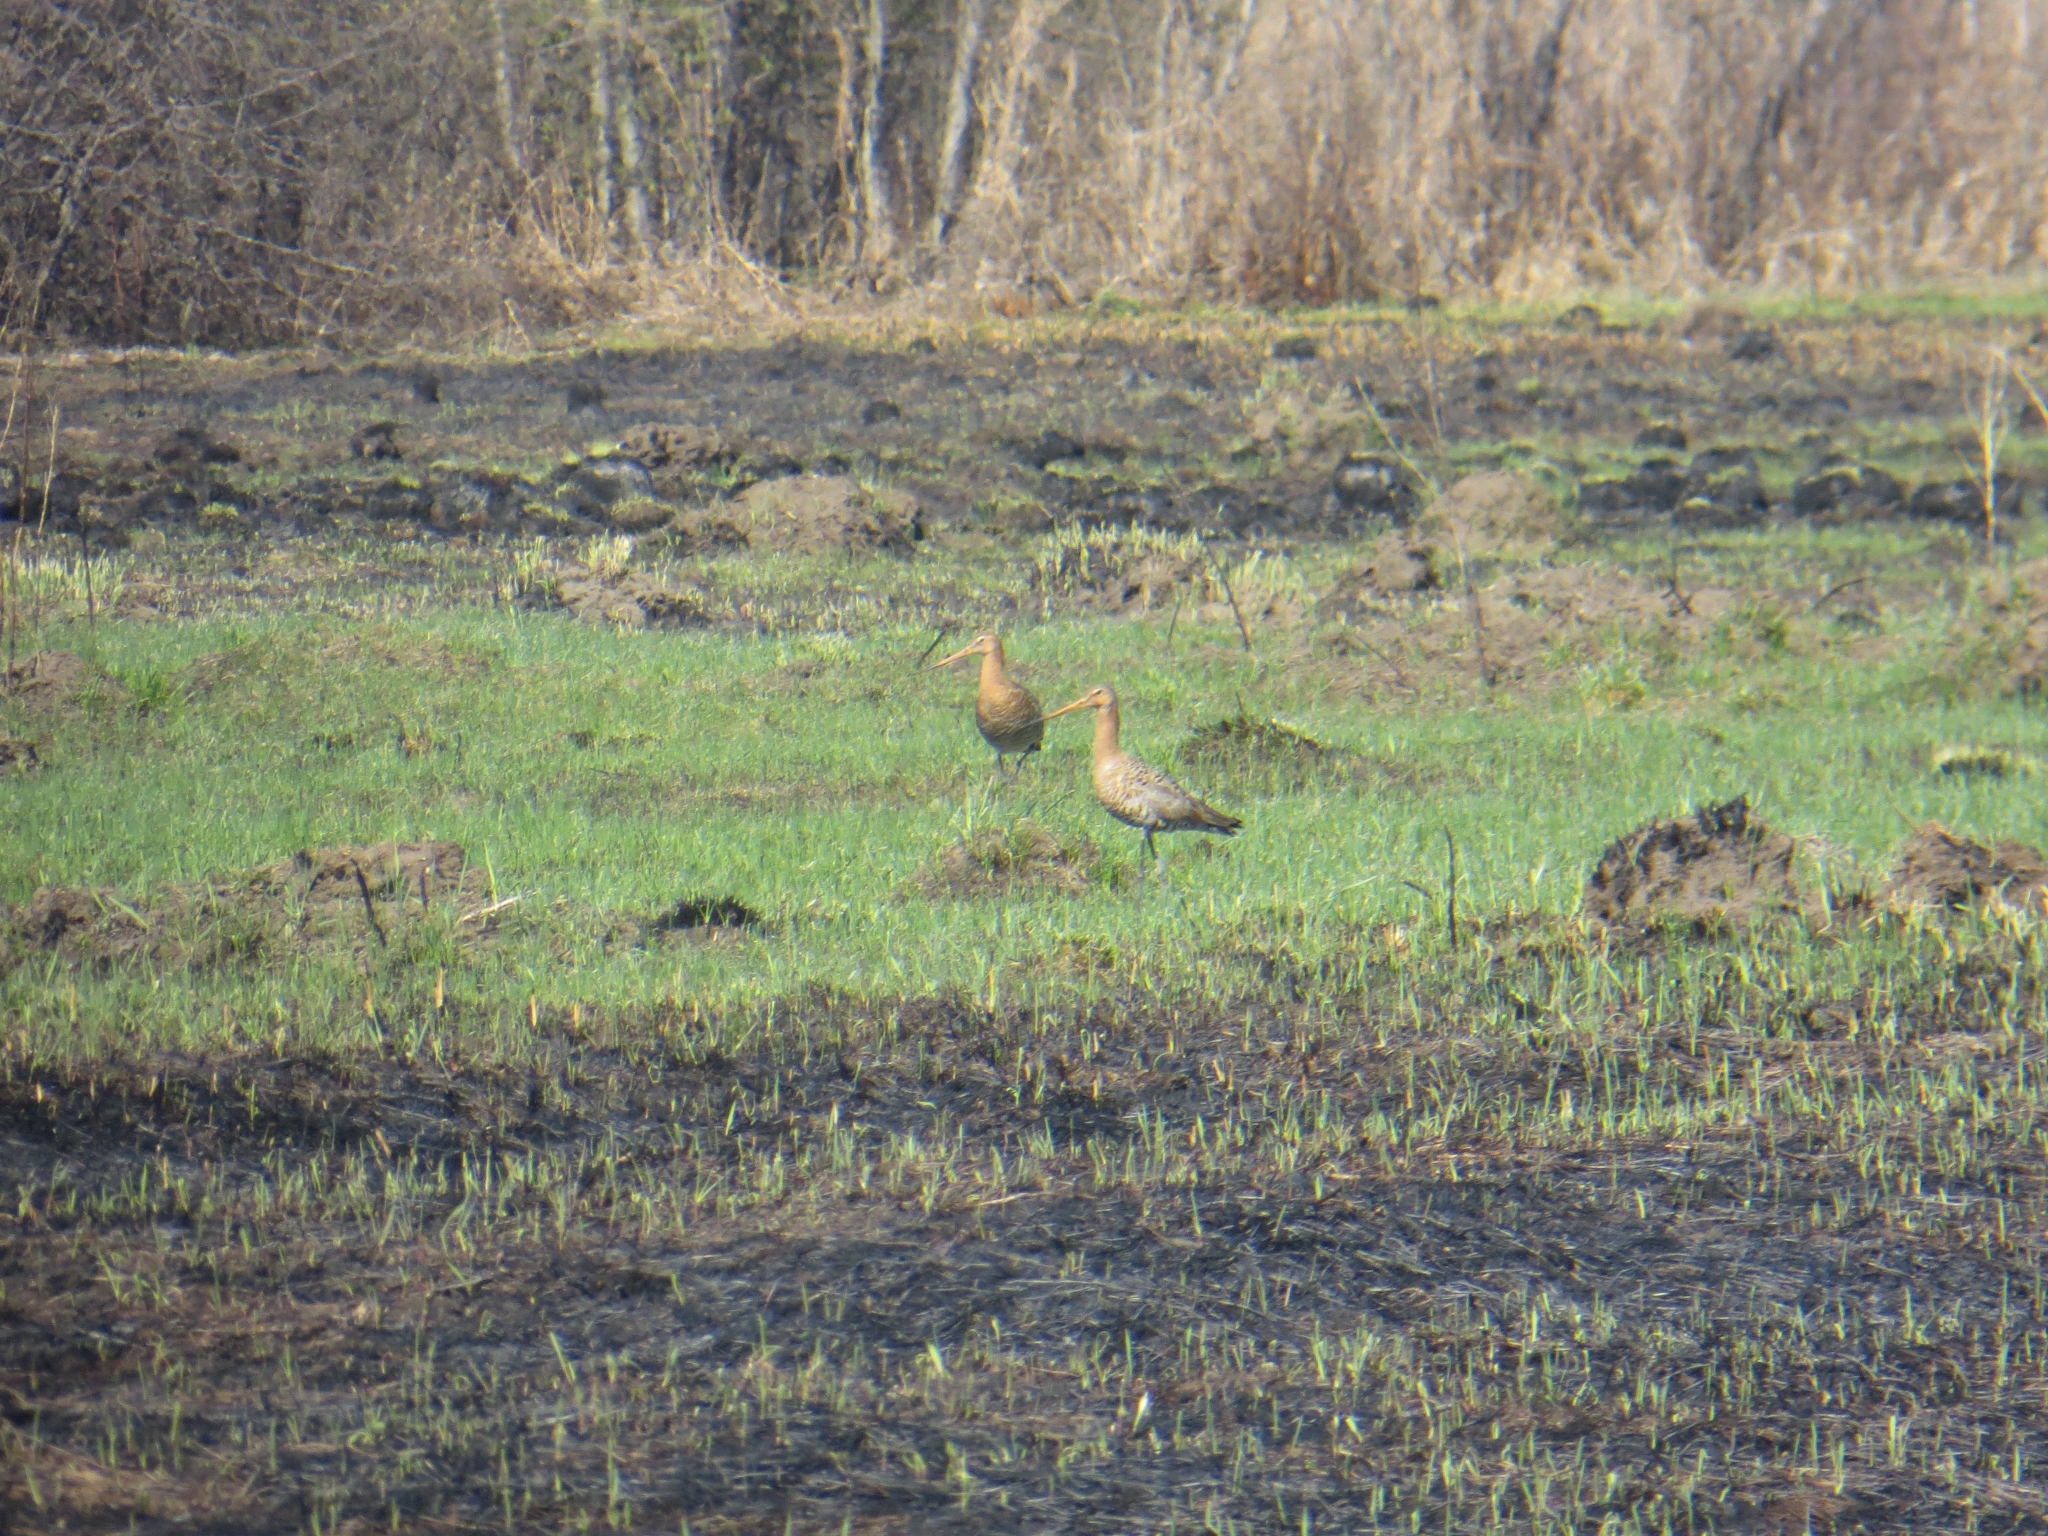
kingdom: Animalia
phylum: Chordata
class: Aves
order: Charadriiformes
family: Scolopacidae
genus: Limosa
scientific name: Limosa limosa
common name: Black-tailed godwit
